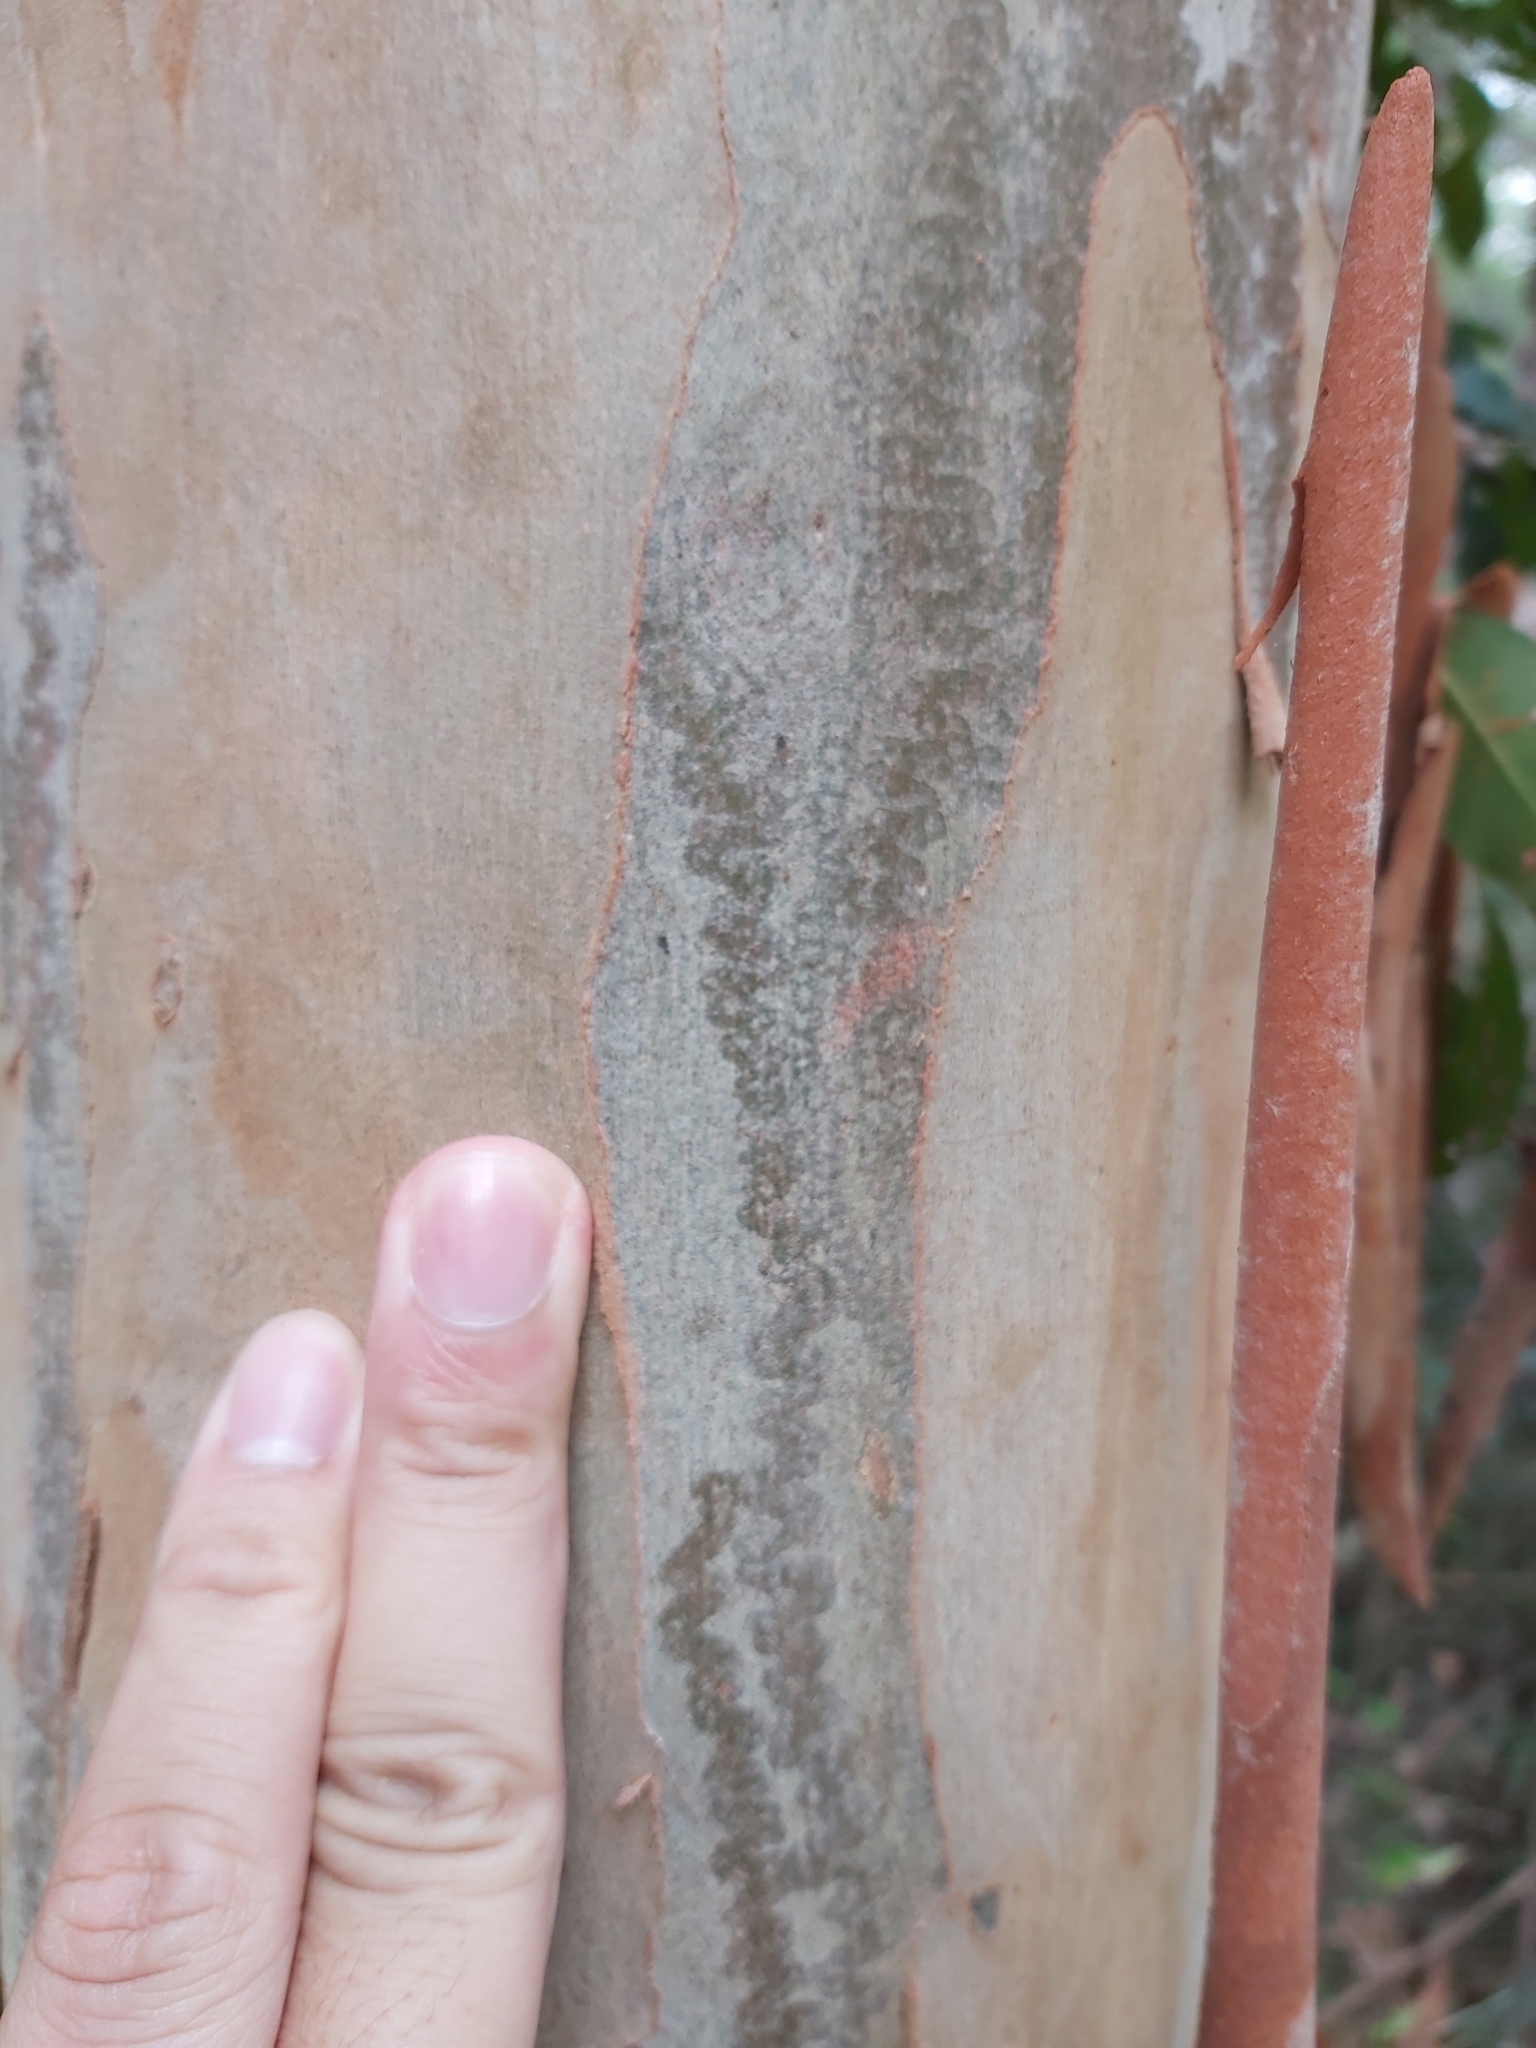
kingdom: Animalia
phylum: Mollusca
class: Gastropoda
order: Stylommatophora
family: Athoracophoridae
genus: Triboniophorus
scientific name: Triboniophorus graeffei
